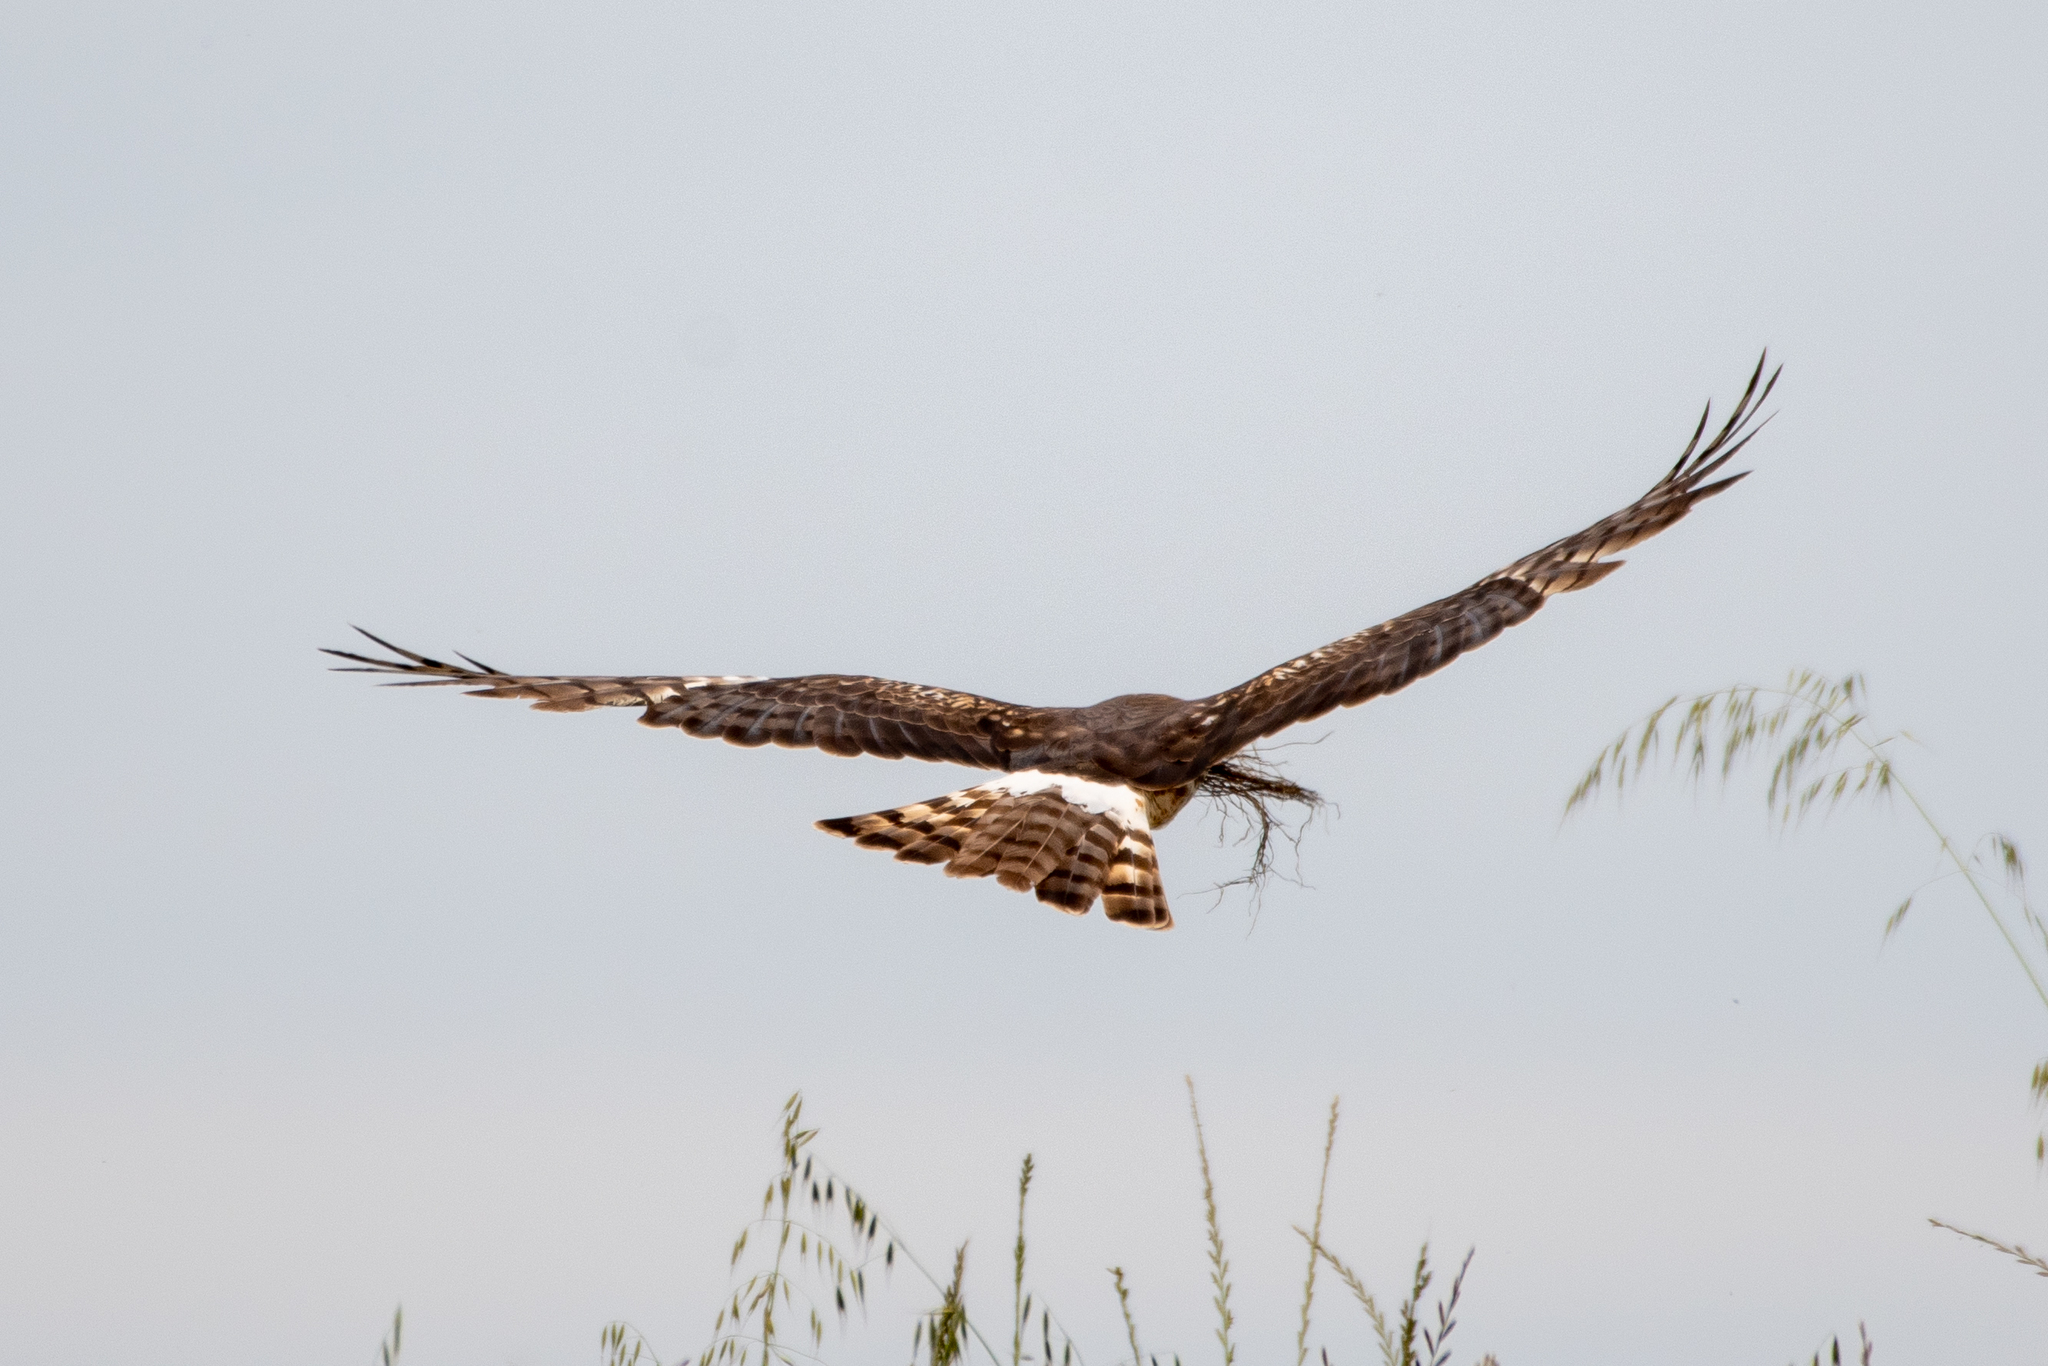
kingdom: Animalia
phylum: Chordata
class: Aves
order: Accipitriformes
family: Accipitridae
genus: Circus
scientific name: Circus cyaneus
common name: Hen harrier
